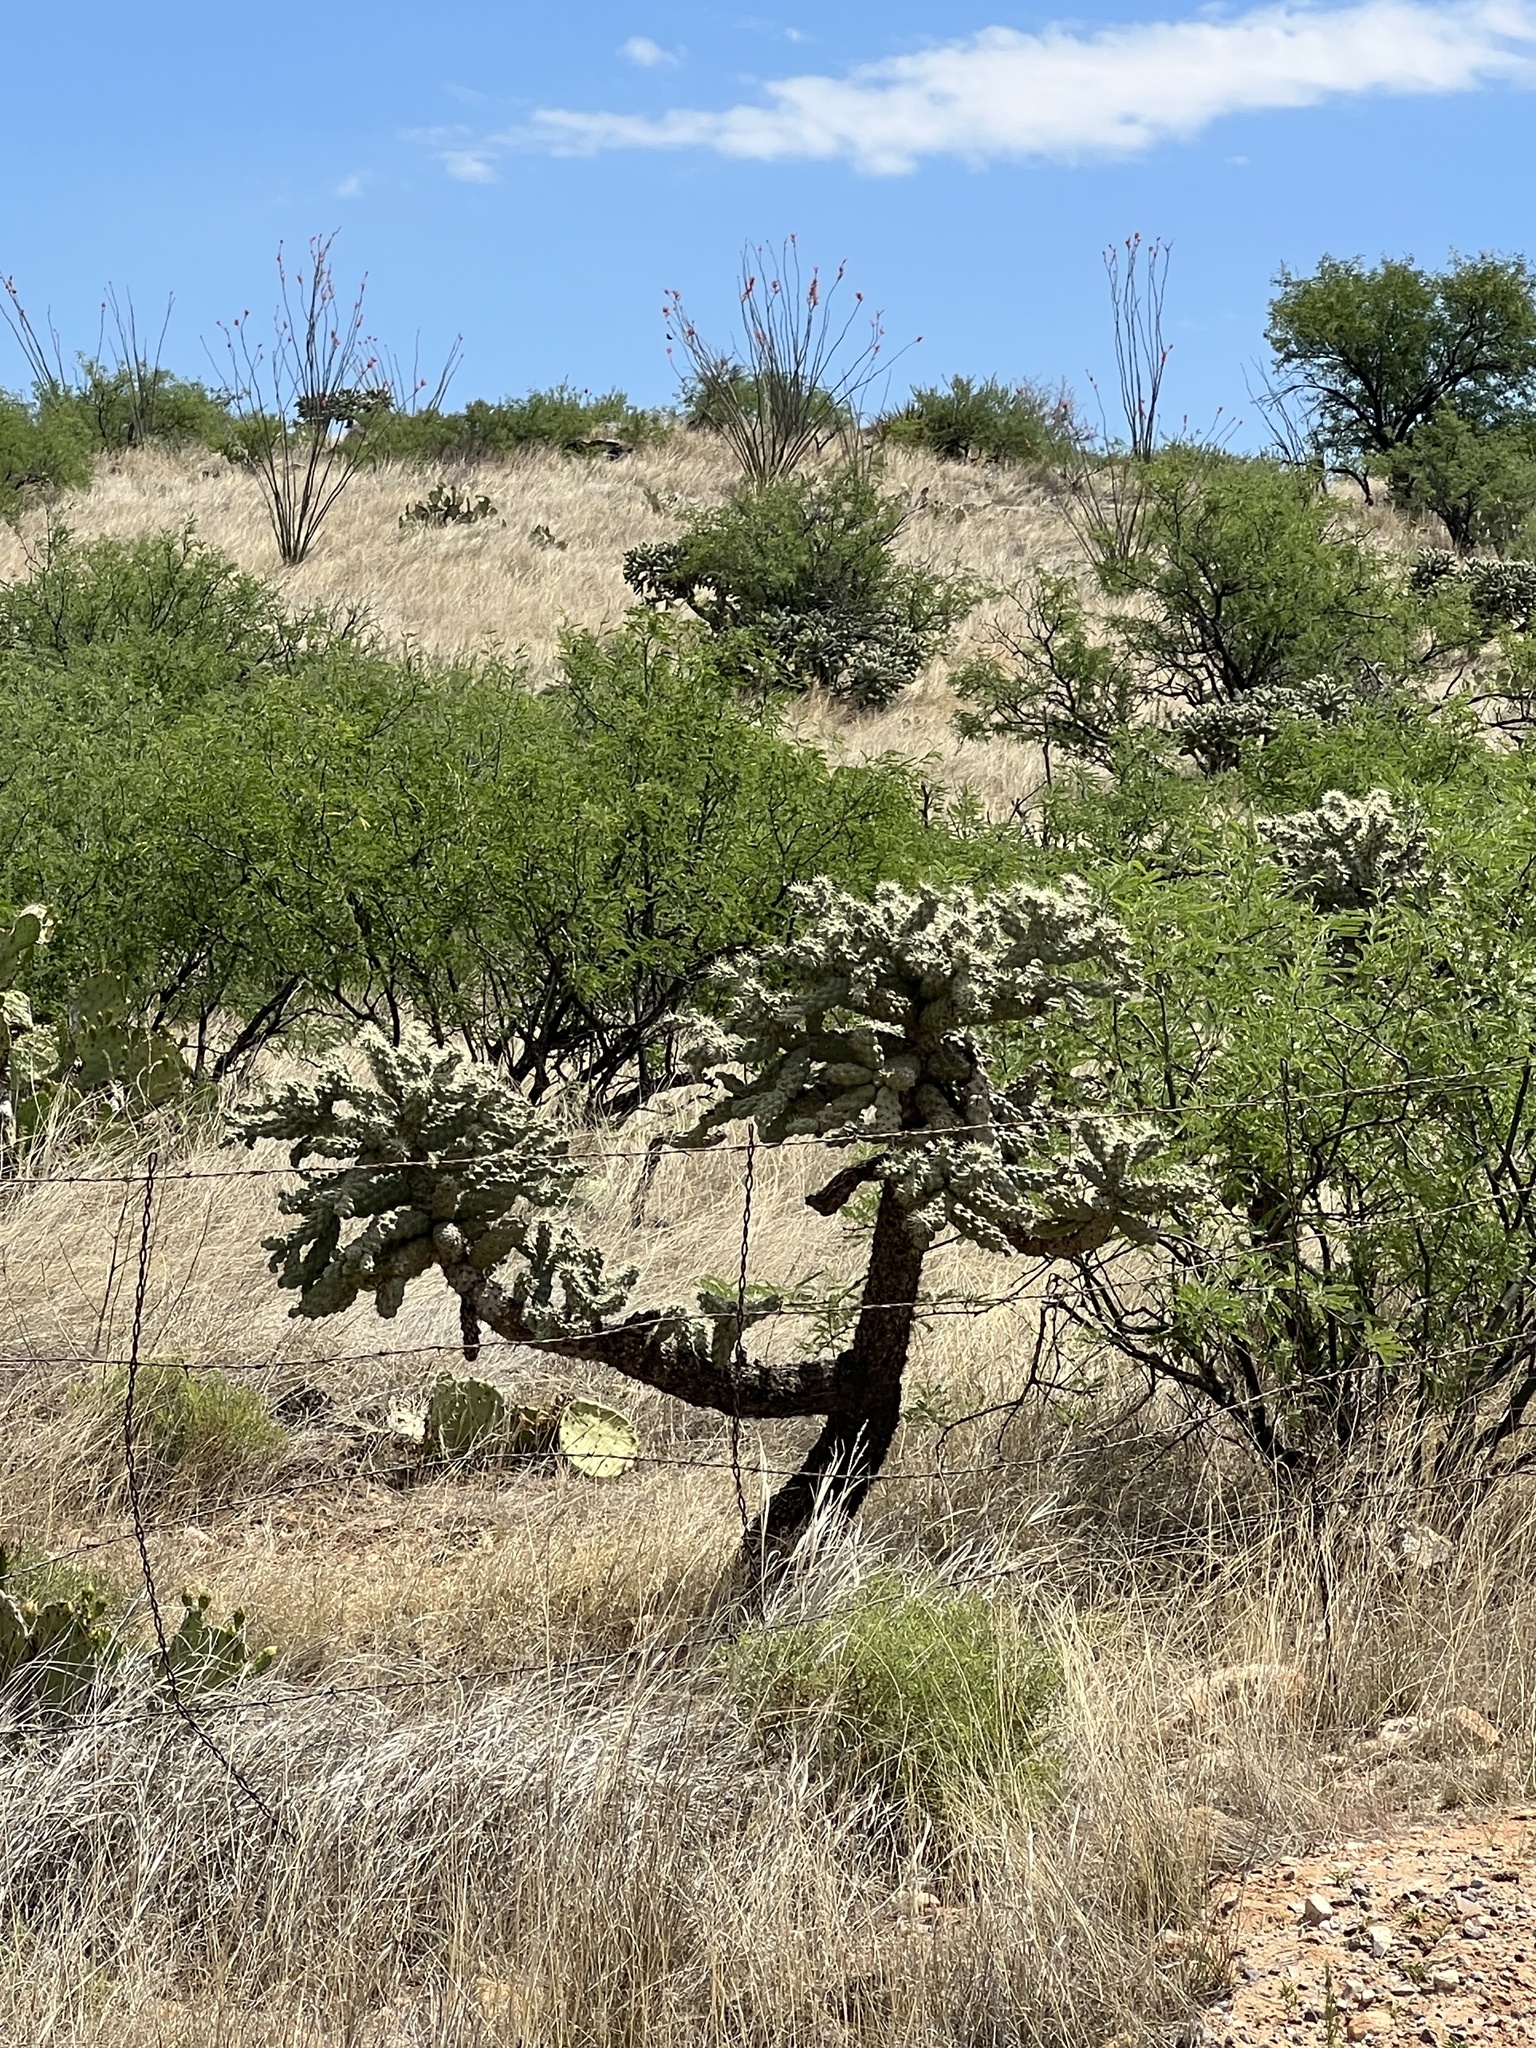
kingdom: Plantae
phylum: Tracheophyta
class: Magnoliopsida
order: Caryophyllales
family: Cactaceae
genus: Cylindropuntia
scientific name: Cylindropuntia fulgida
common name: Jumping cholla
